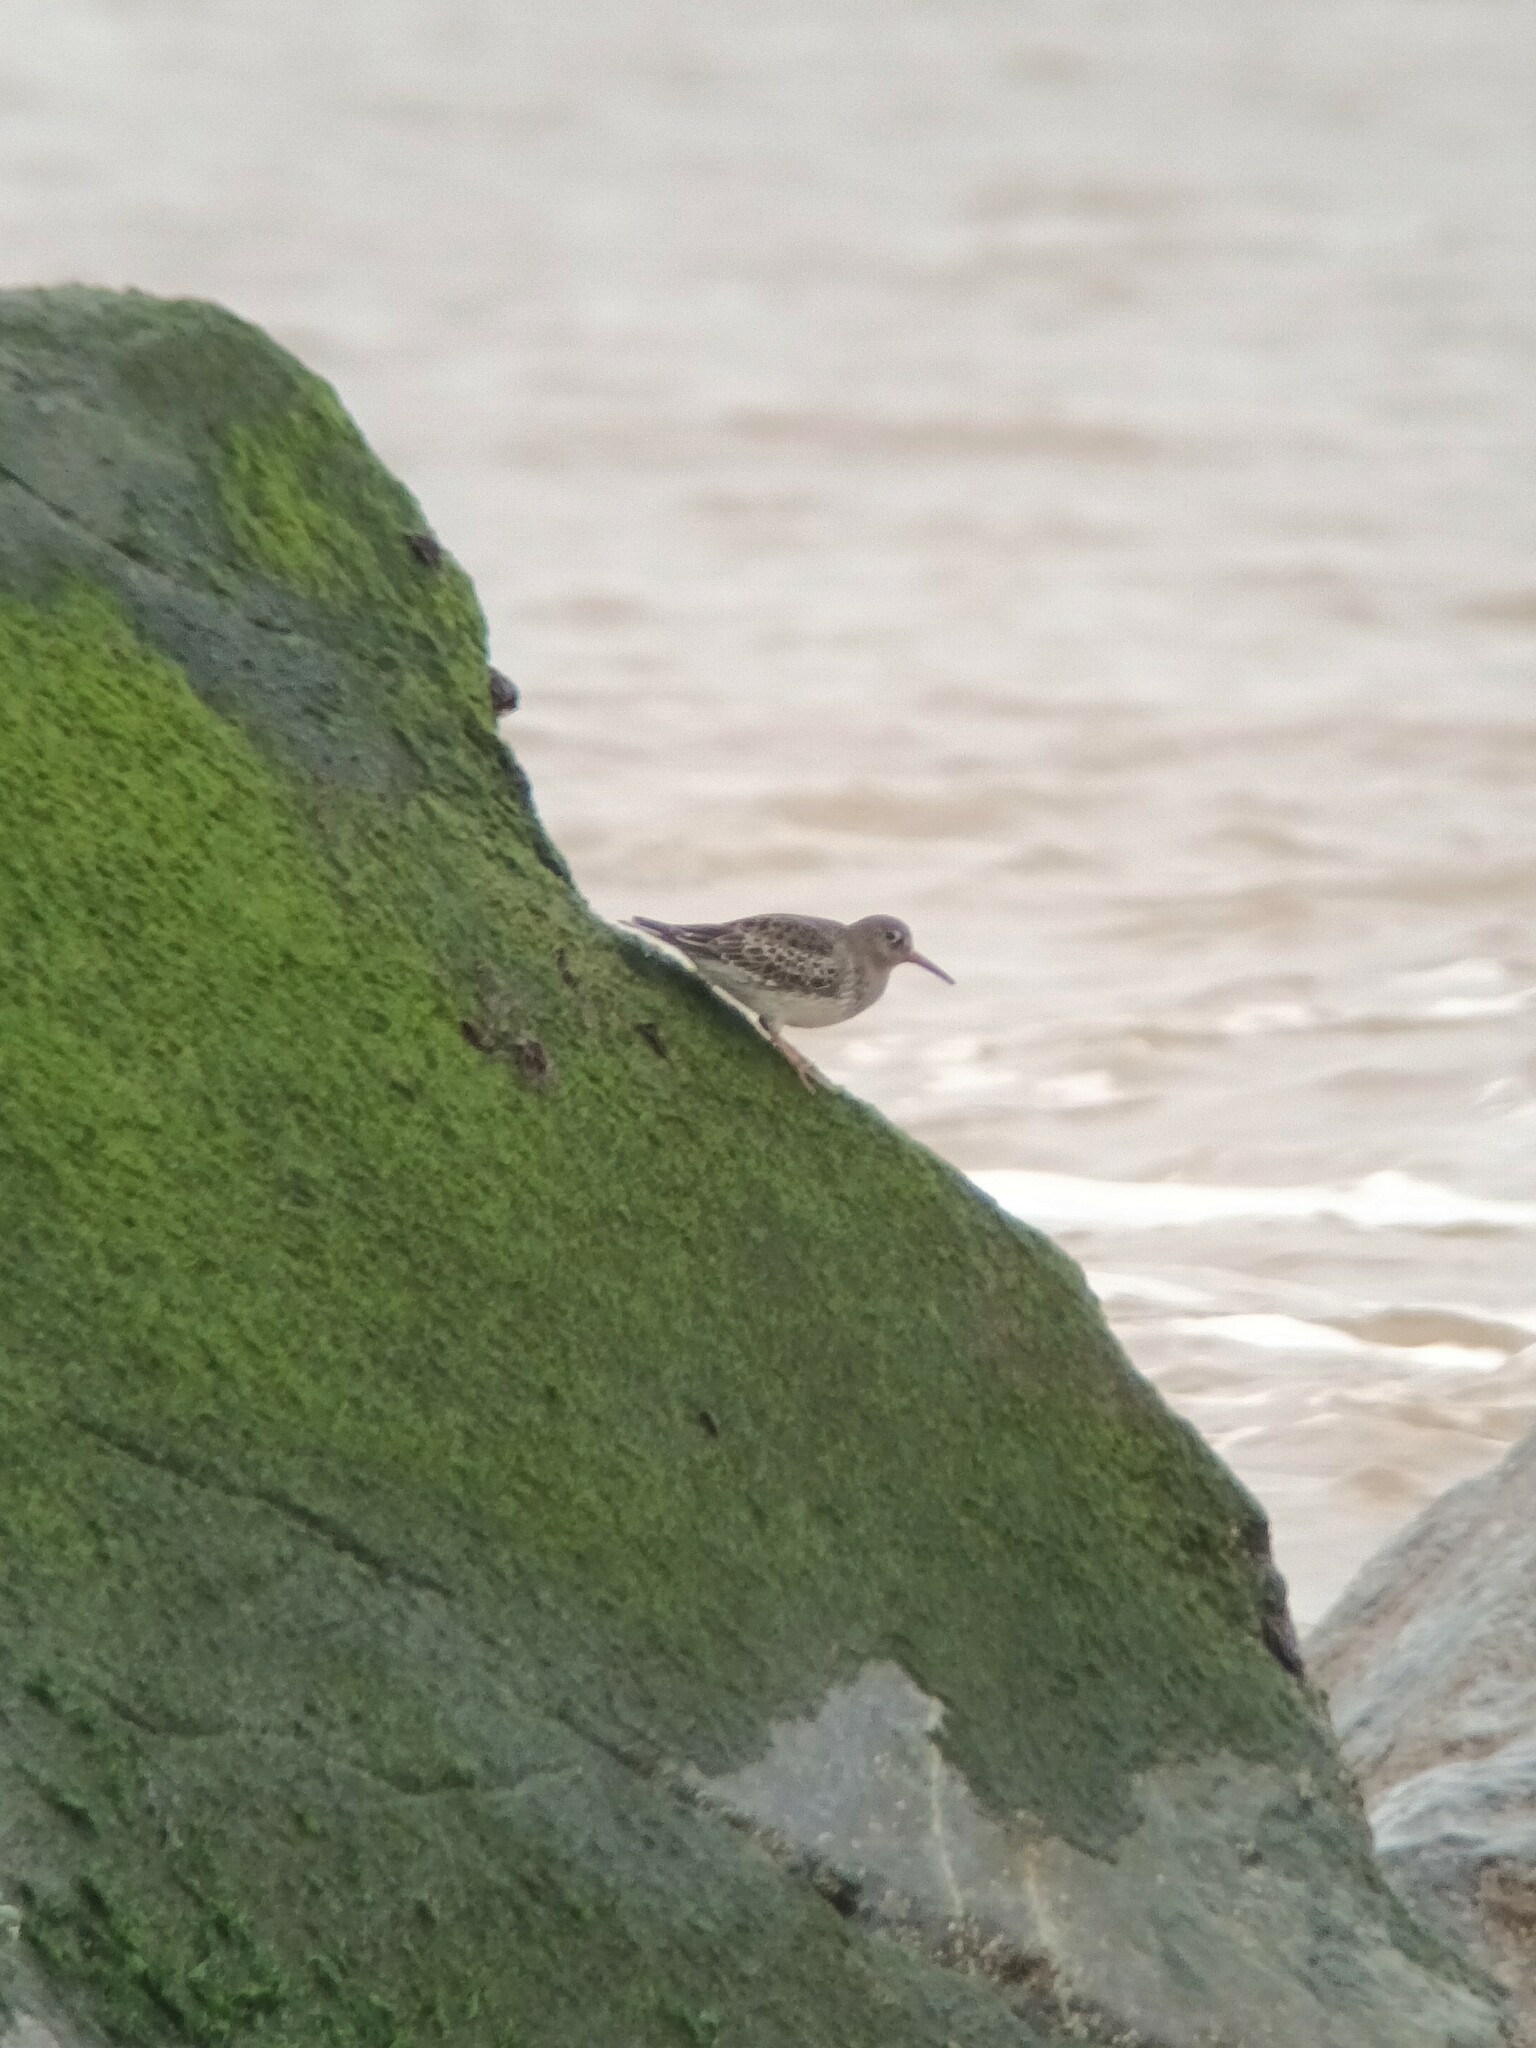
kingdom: Animalia
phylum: Chordata
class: Aves
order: Charadriiformes
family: Scolopacidae
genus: Calidris
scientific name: Calidris maritima
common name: Purple sandpiper
